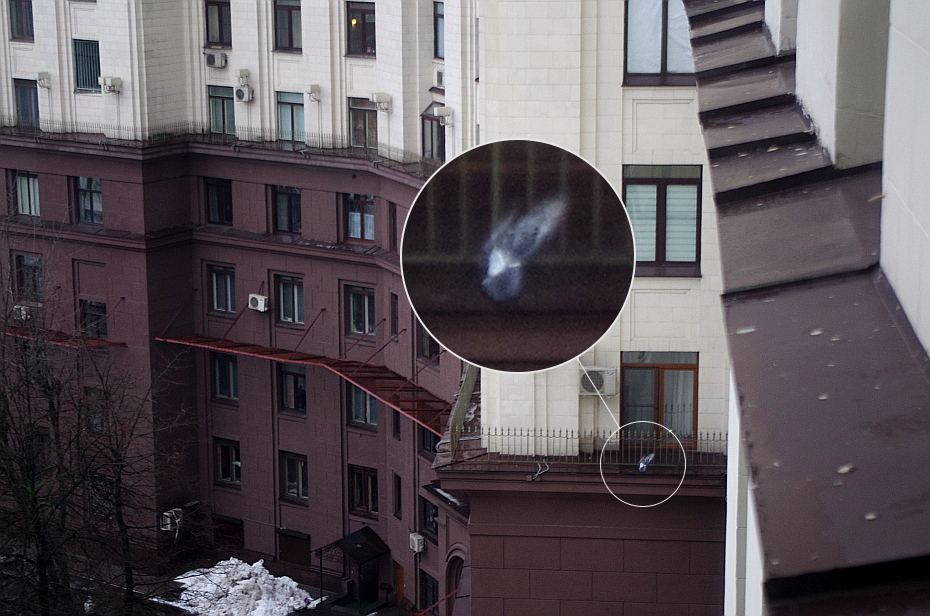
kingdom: Animalia
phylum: Chordata
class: Aves
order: Columbiformes
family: Columbidae
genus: Columba
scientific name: Columba livia
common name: Rock pigeon
